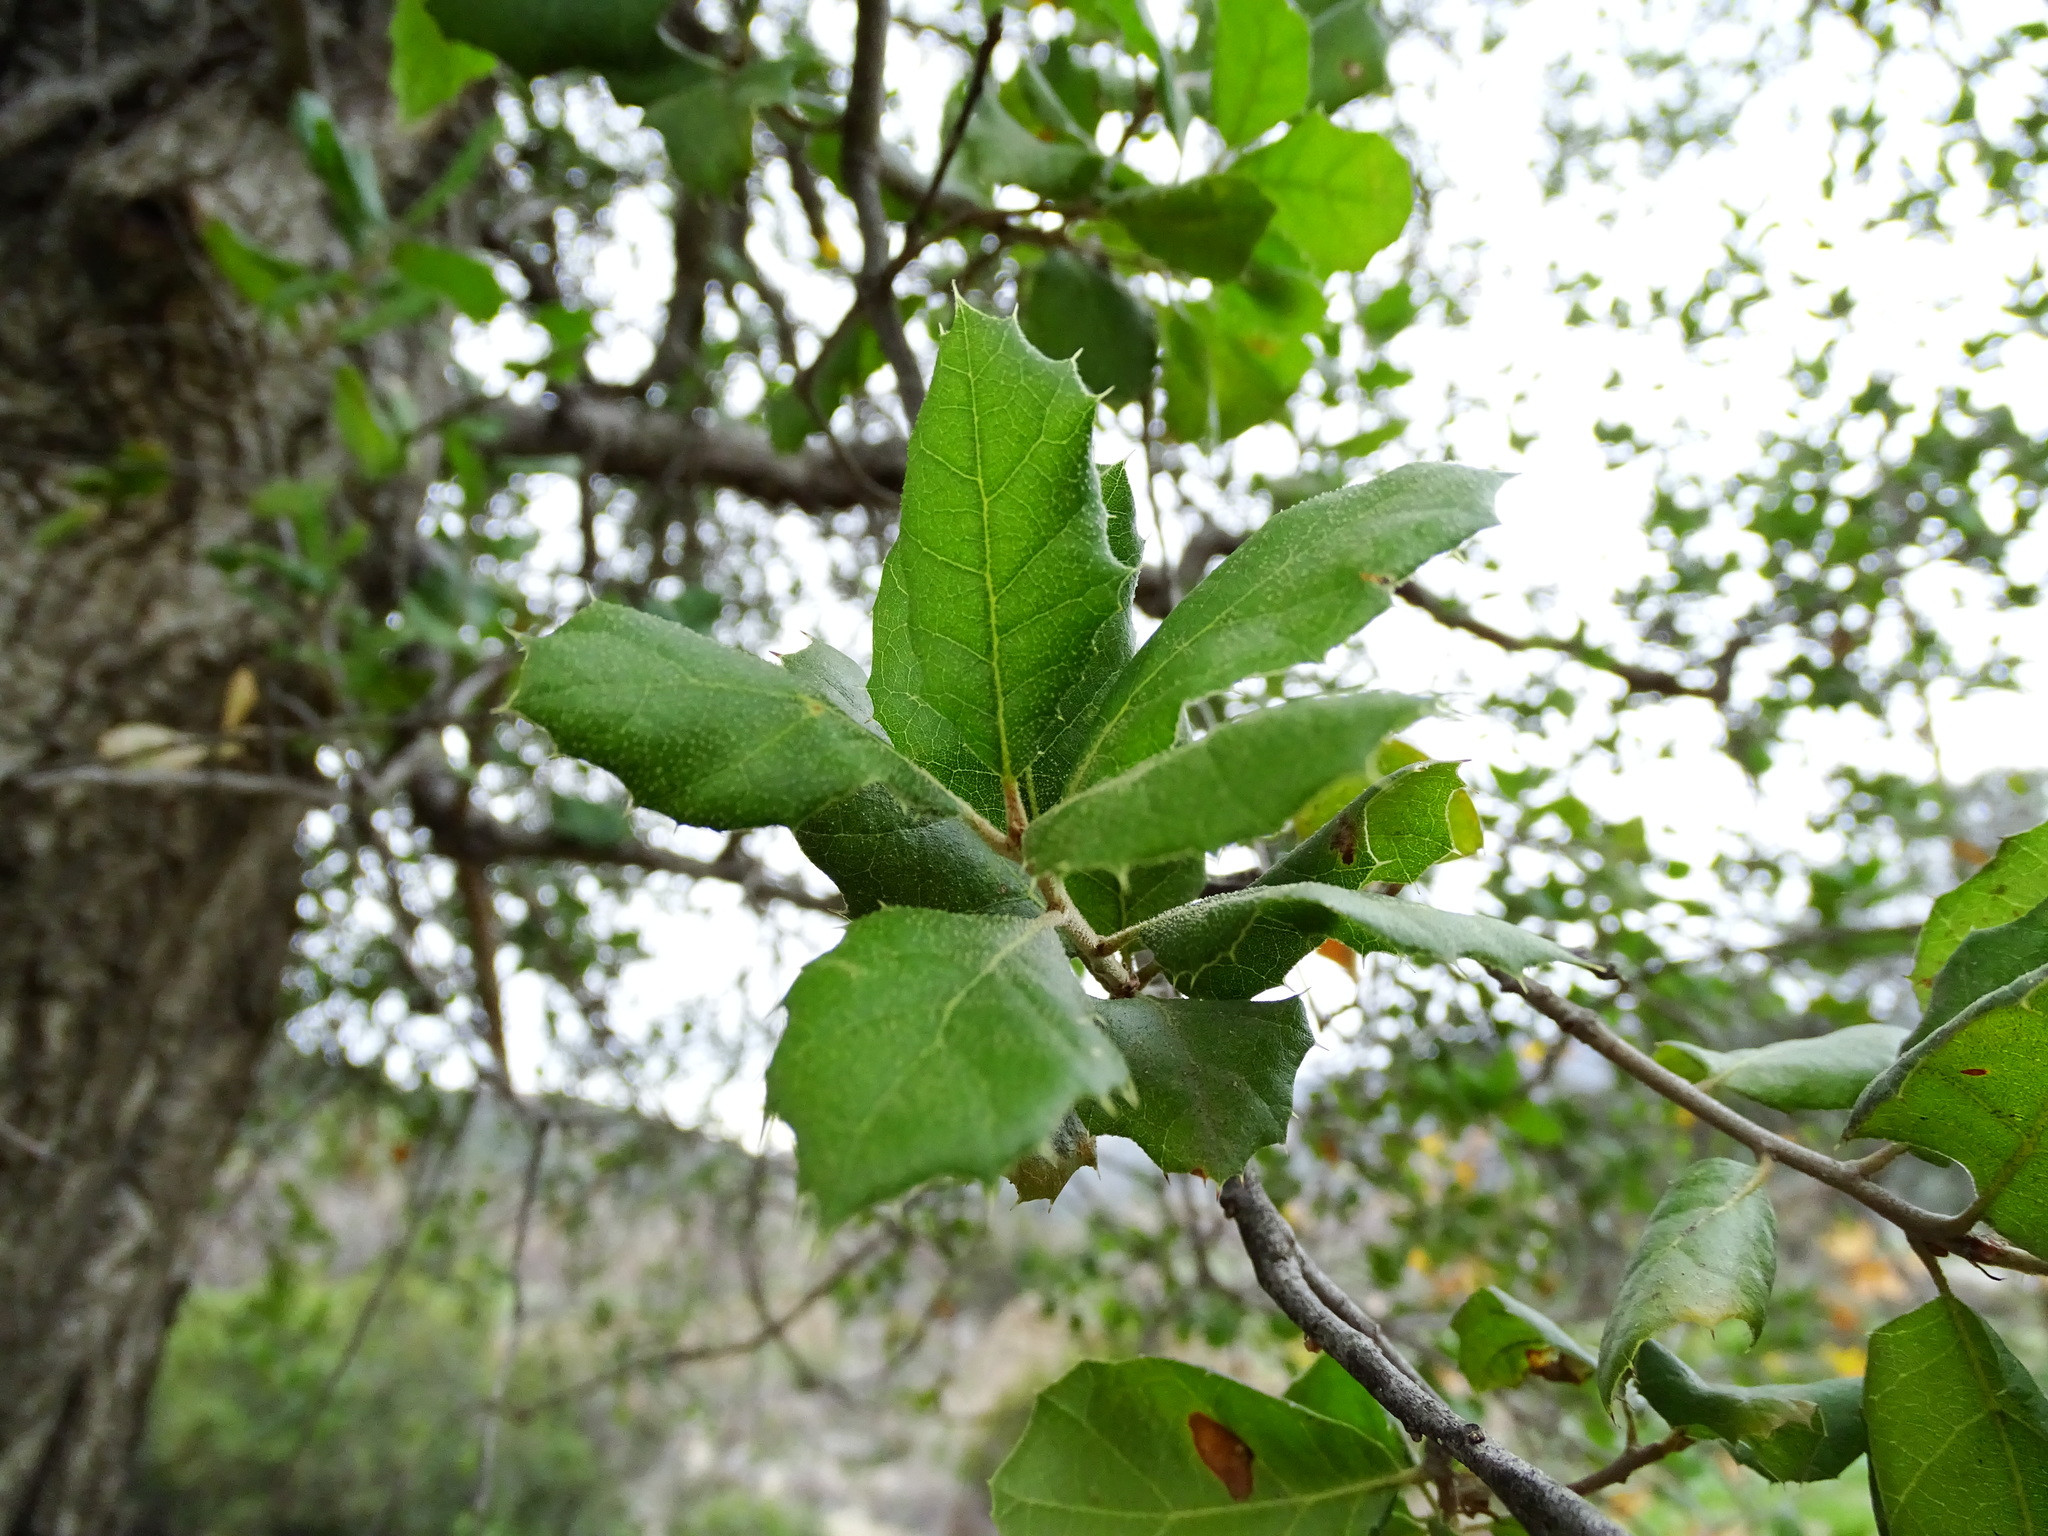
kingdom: Plantae
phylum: Tracheophyta
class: Magnoliopsida
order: Fagales
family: Fagaceae
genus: Quercus
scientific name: Quercus agrifolia
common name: California live oak
